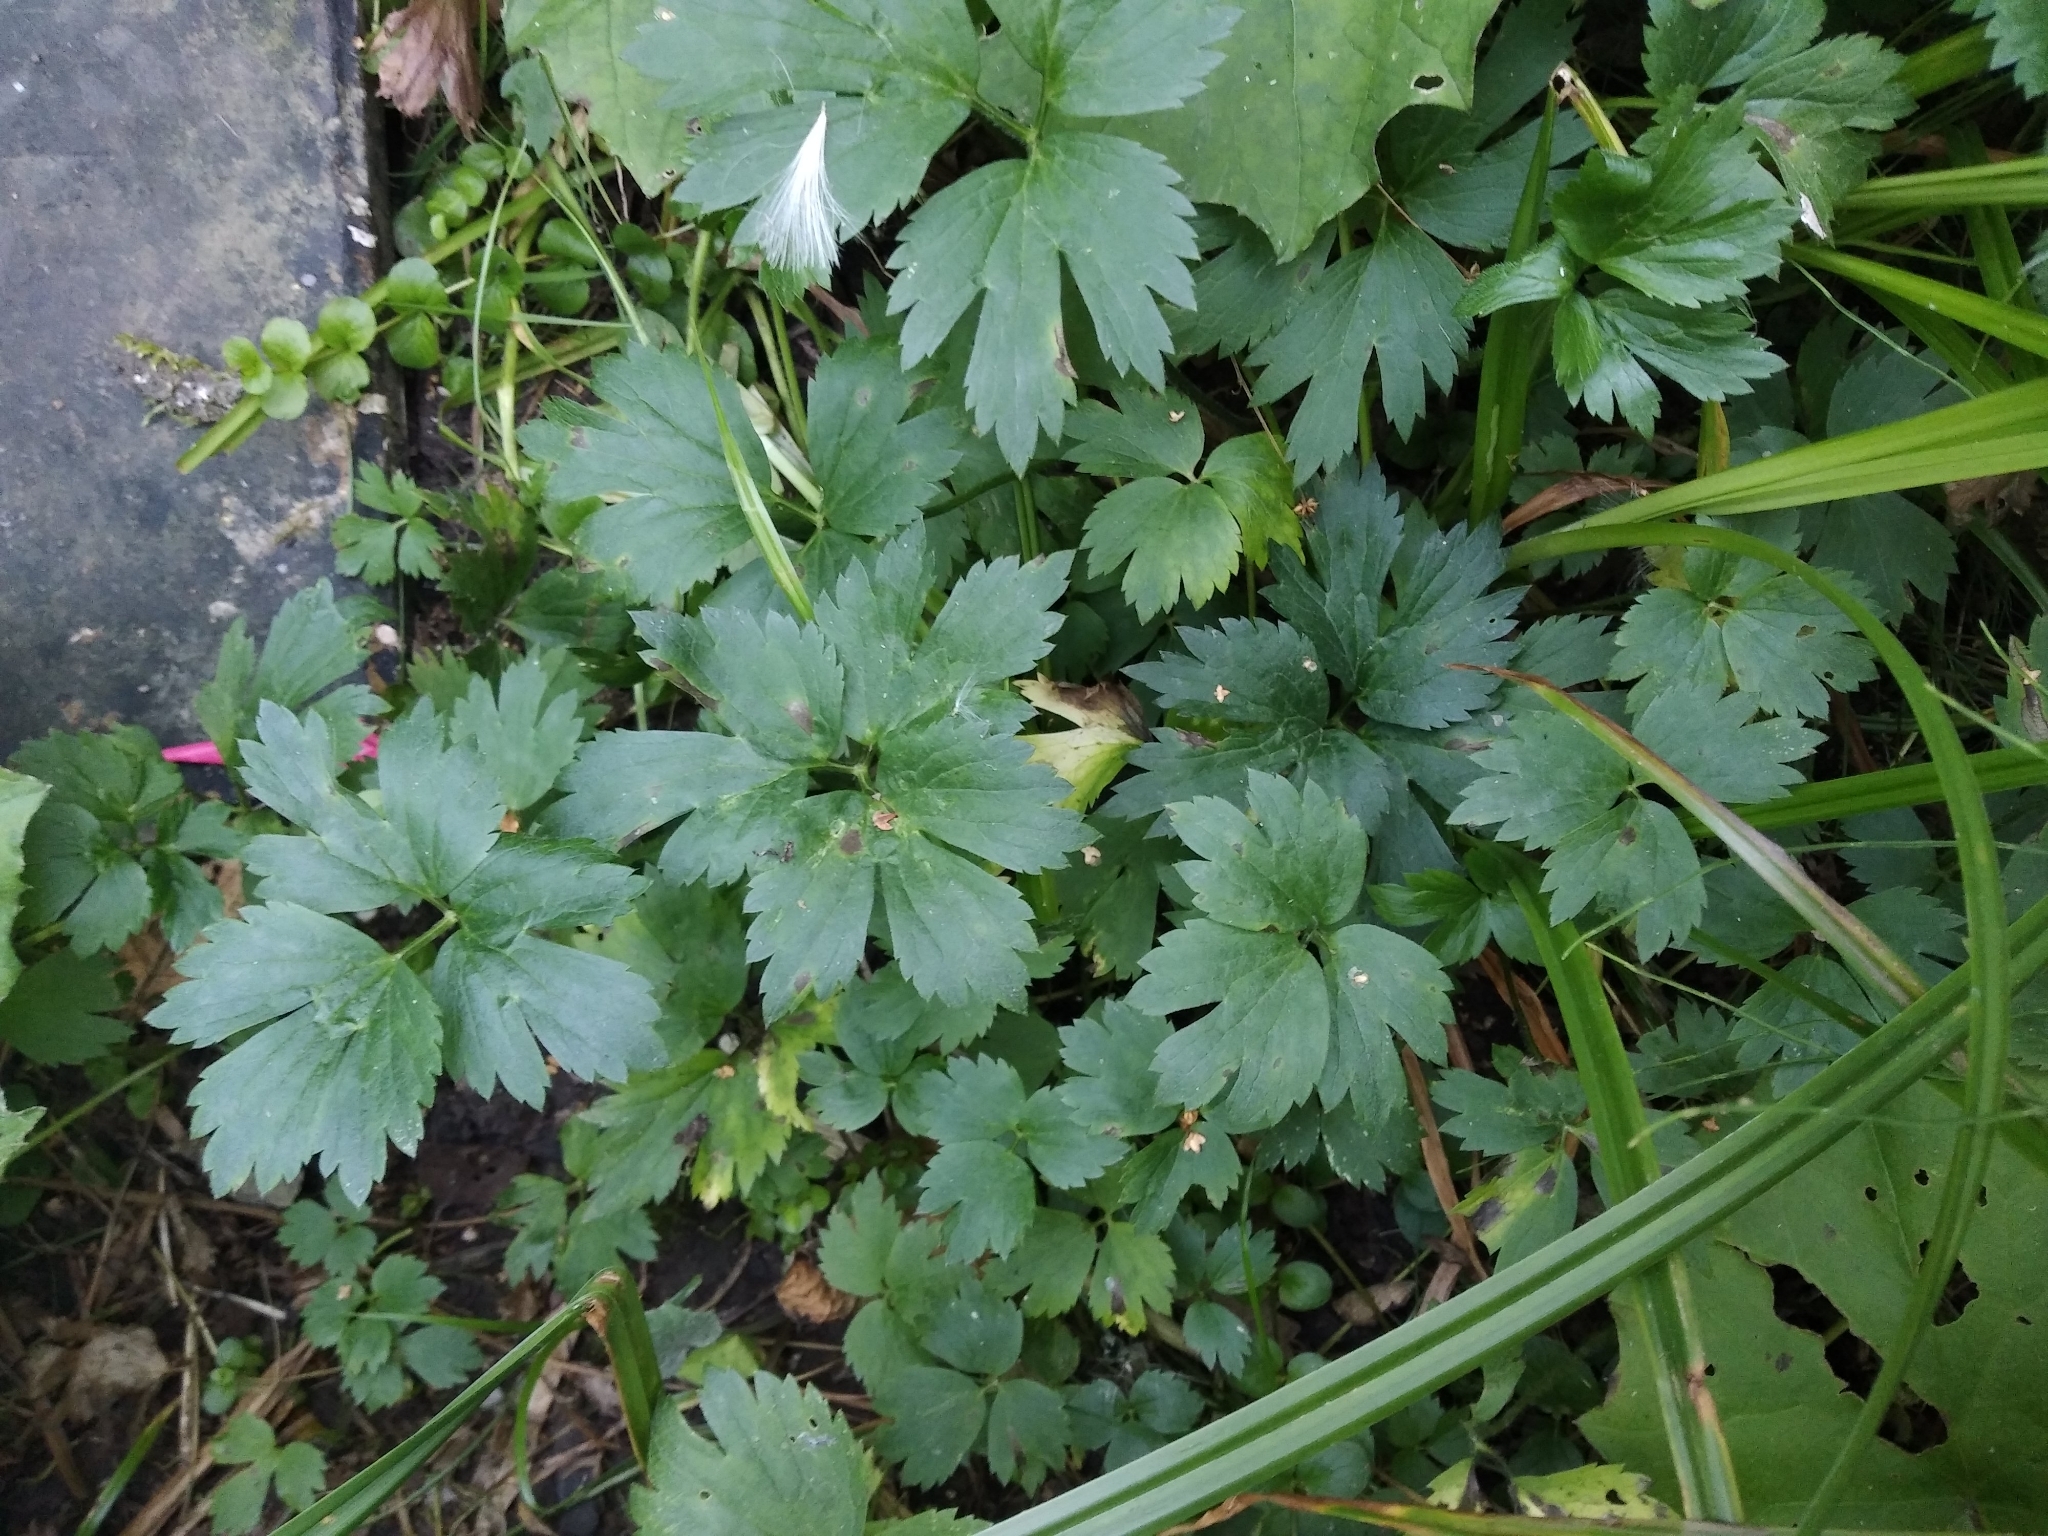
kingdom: Plantae
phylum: Tracheophyta
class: Magnoliopsida
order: Ranunculales
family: Ranunculaceae
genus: Ranunculus
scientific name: Ranunculus repens
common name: Creeping buttercup
